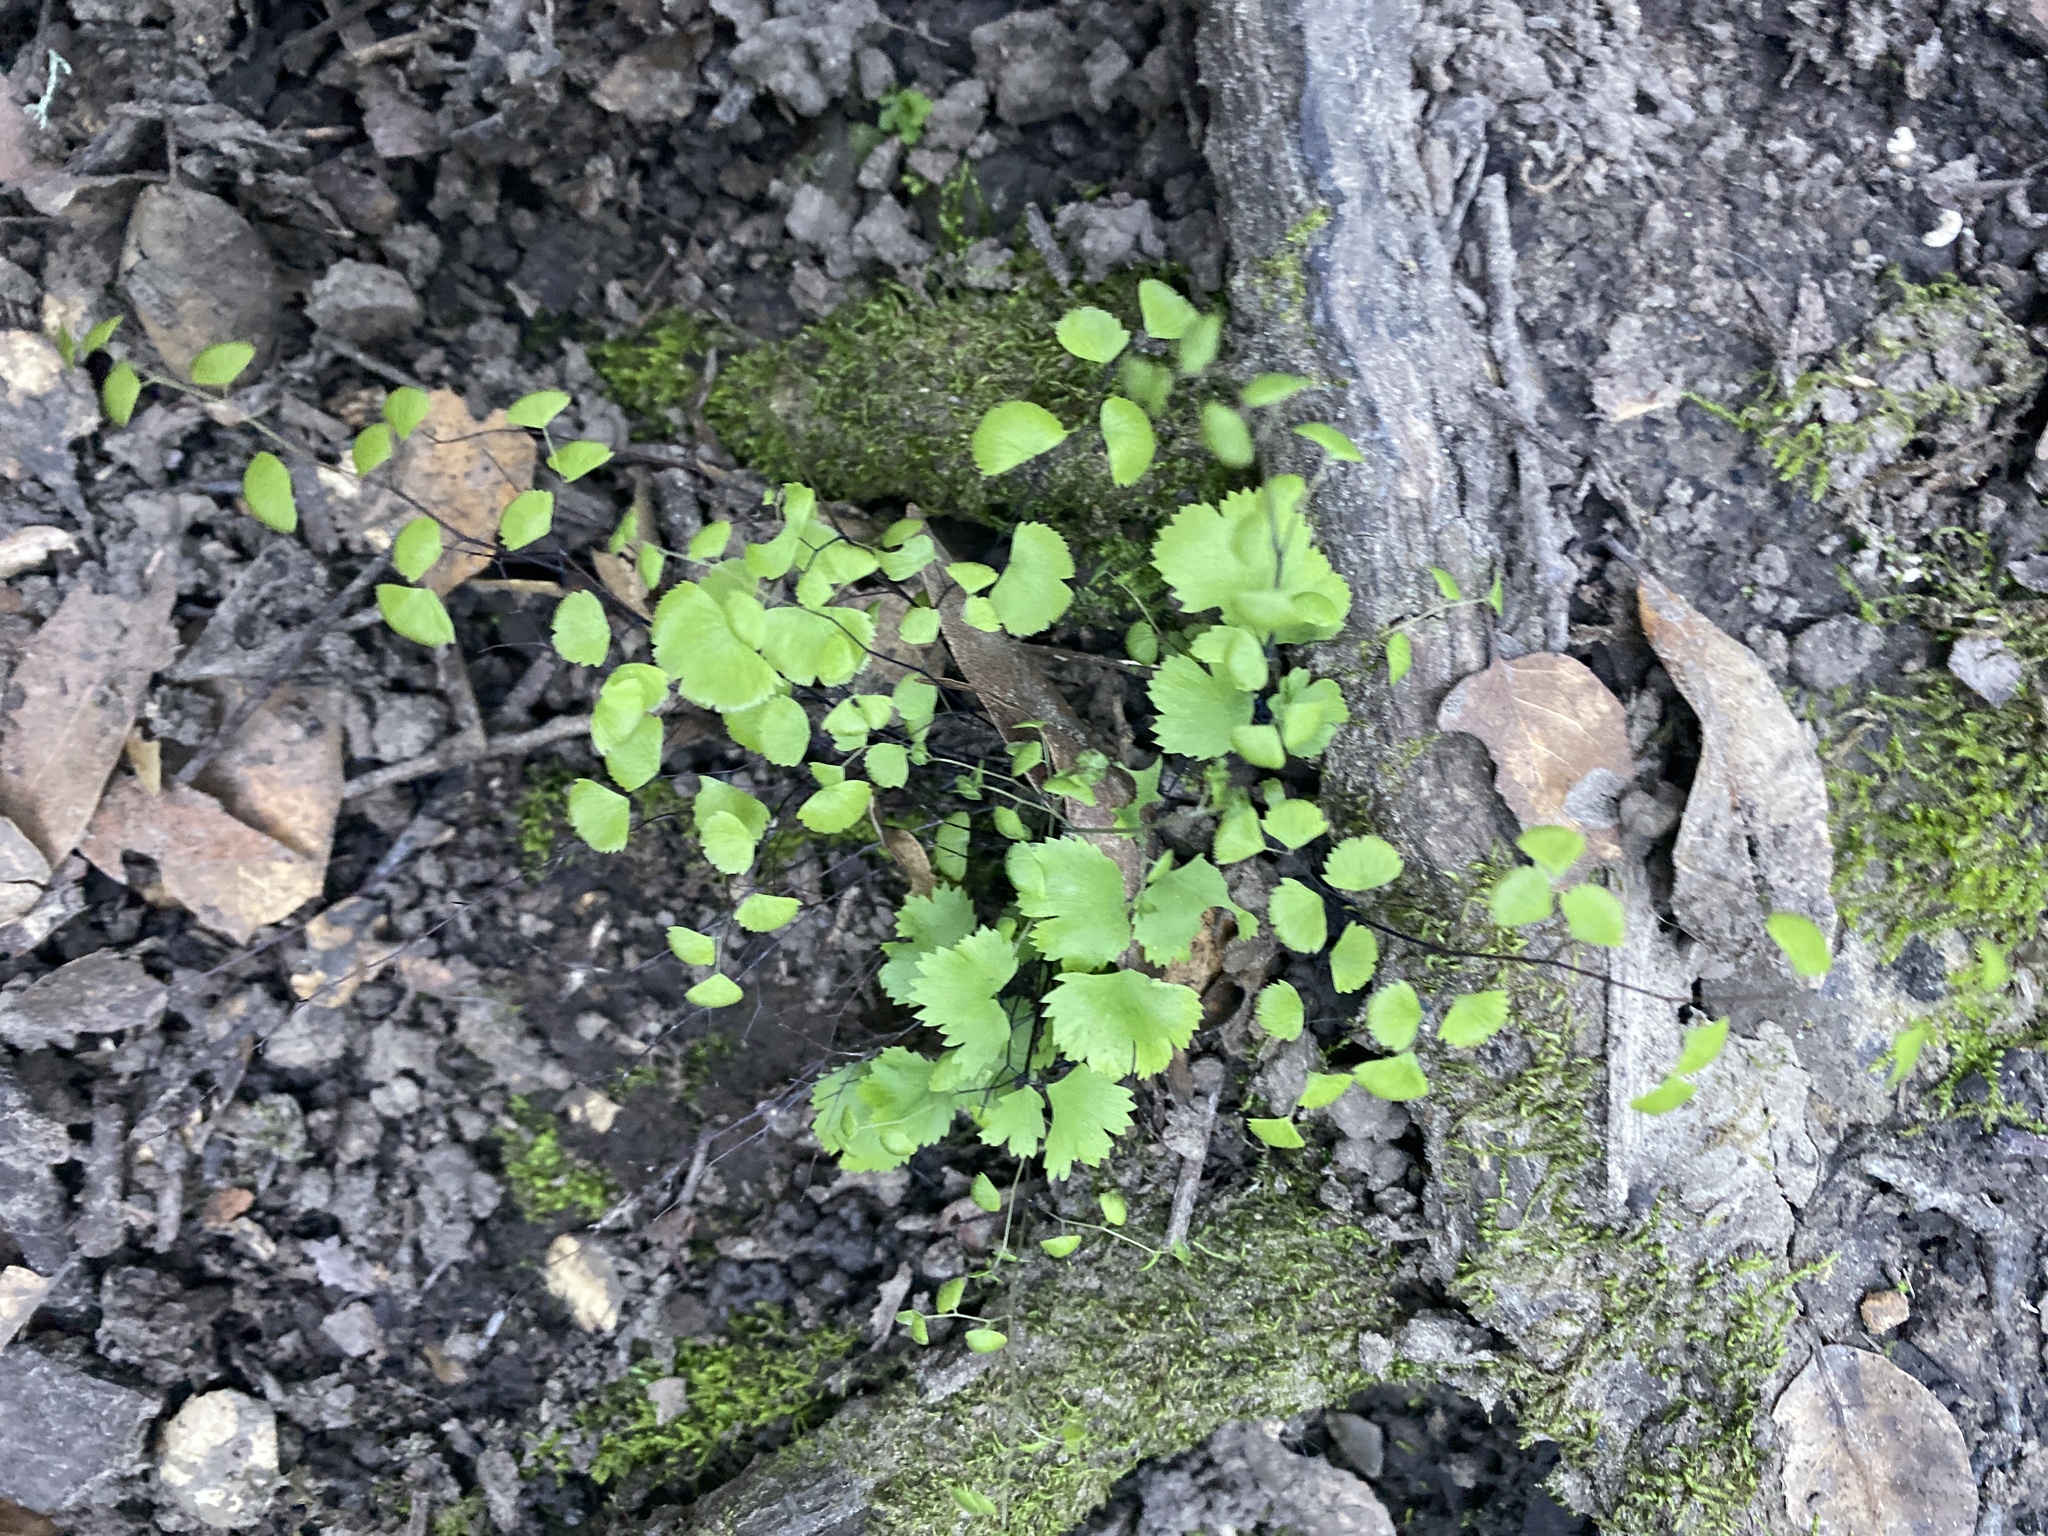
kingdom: Plantae
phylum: Tracheophyta
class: Polypodiopsida
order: Polypodiales
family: Pteridaceae
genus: Adiantum
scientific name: Adiantum jordanii
